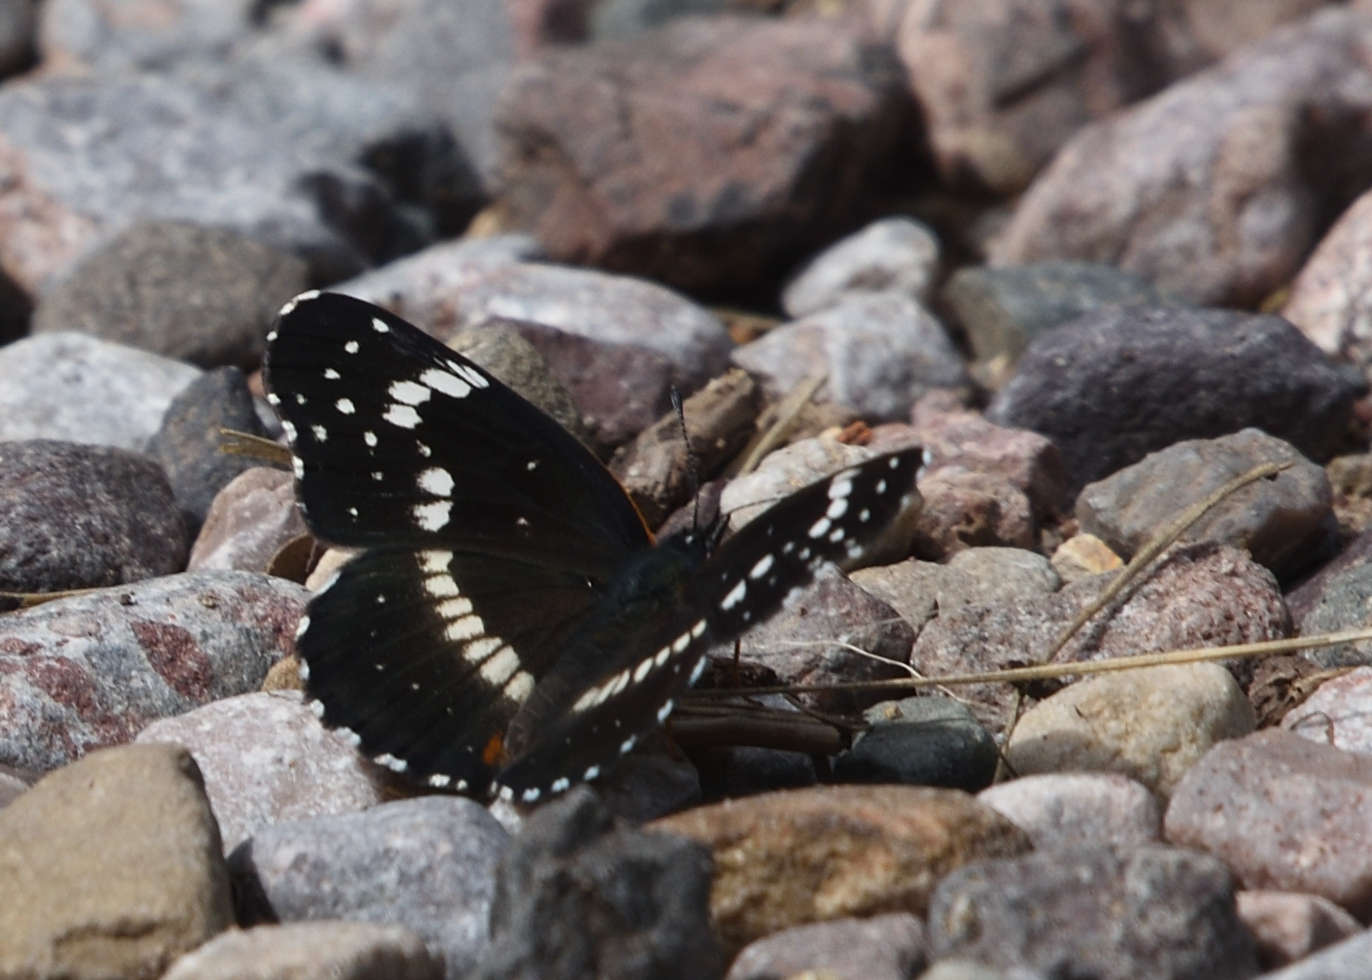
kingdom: Animalia
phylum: Arthropoda
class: Insecta
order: Lepidoptera
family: Nymphalidae
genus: Chlosyne
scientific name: Chlosyne lacinia
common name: Bordered patch
